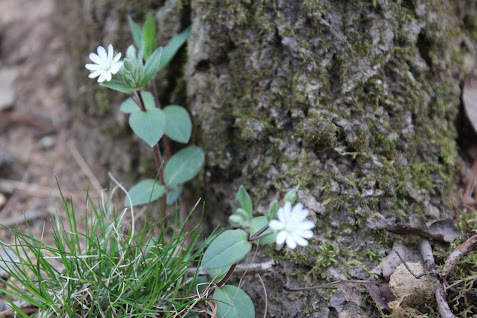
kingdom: Plantae
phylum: Tracheophyta
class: Magnoliopsida
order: Caryophyllales
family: Caryophyllaceae
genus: Stellaria
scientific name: Stellaria pubera
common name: Star chickweed
